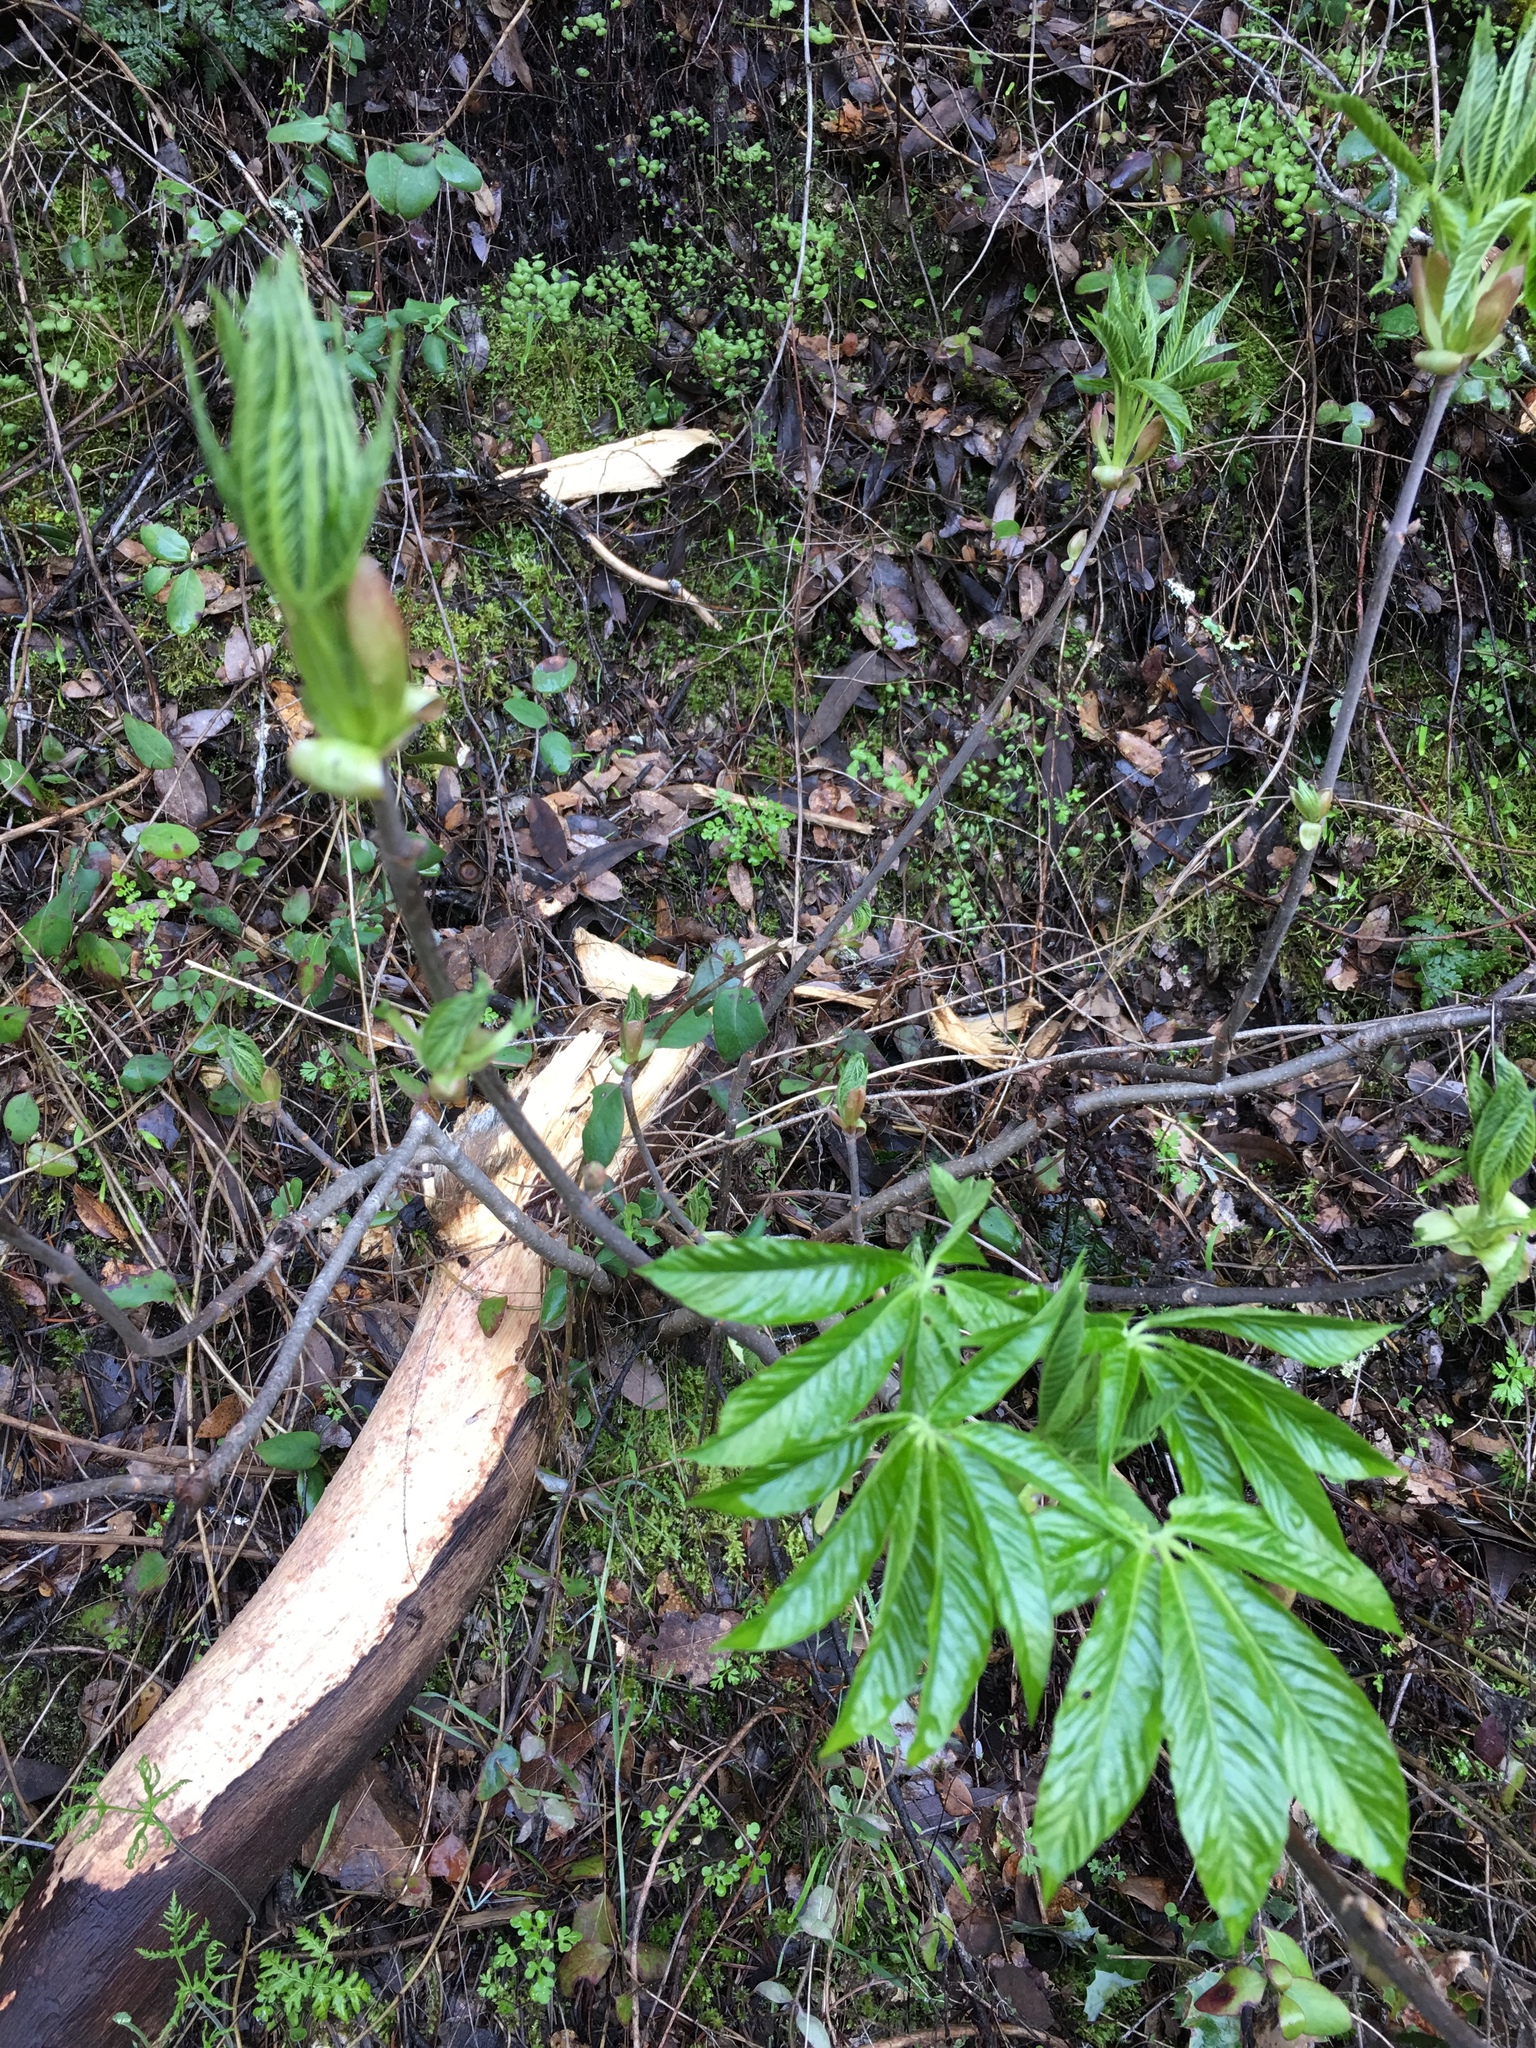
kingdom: Plantae
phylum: Tracheophyta
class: Magnoliopsida
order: Sapindales
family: Sapindaceae
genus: Aesculus
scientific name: Aesculus californica
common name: California buckeye
